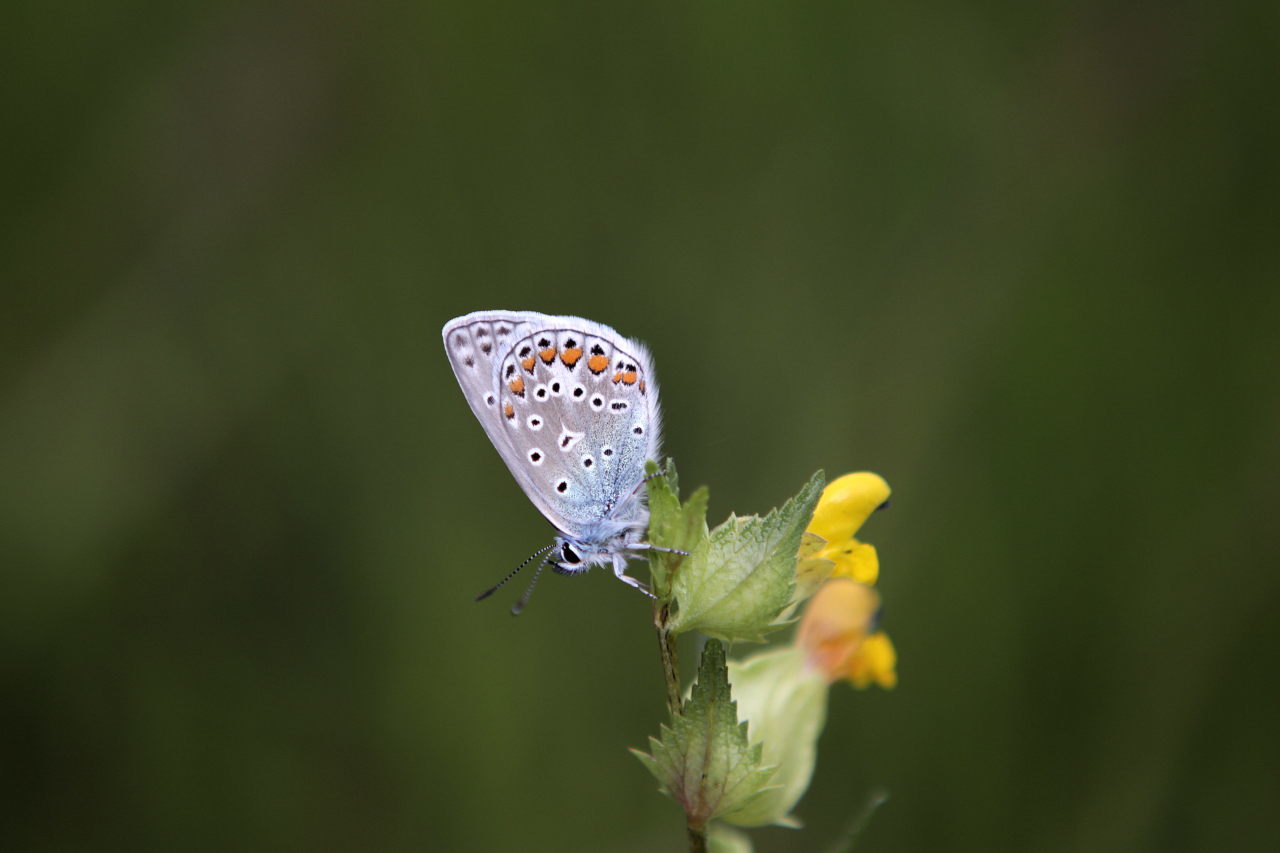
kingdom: Animalia
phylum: Arthropoda
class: Insecta
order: Lepidoptera
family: Lycaenidae
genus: Polyommatus
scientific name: Polyommatus icarus
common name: Common blue
